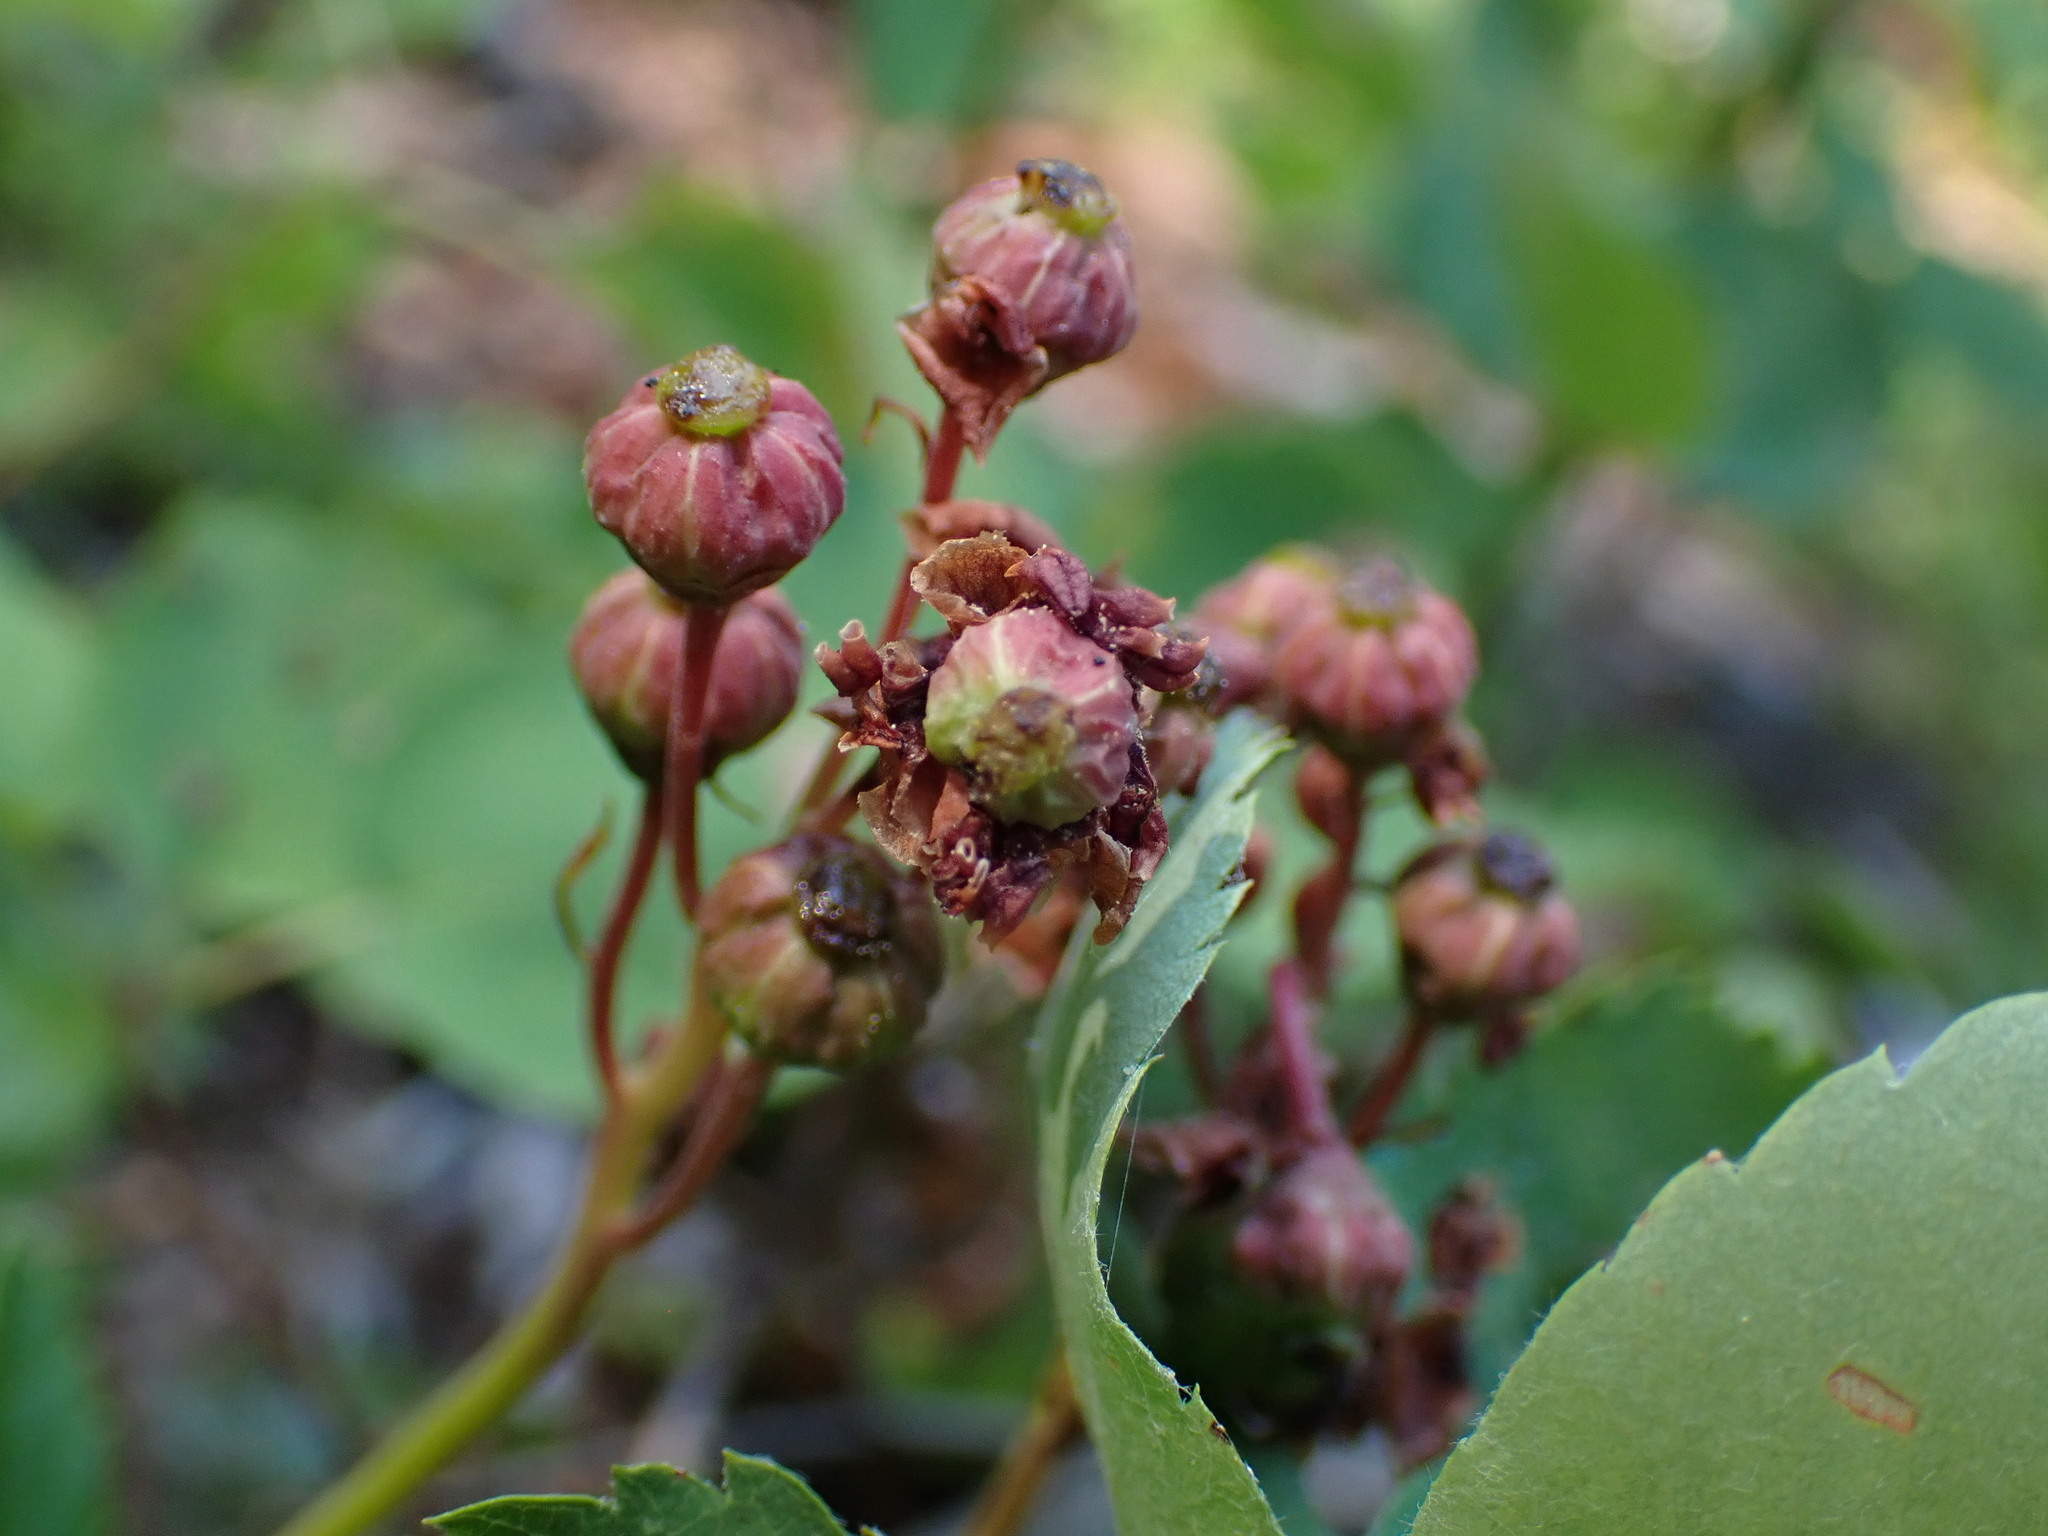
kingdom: Plantae
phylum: Tracheophyta
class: Magnoliopsida
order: Ericales
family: Ericaceae
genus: Chimaphila
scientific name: Chimaphila umbellata
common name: Pipsissewa
